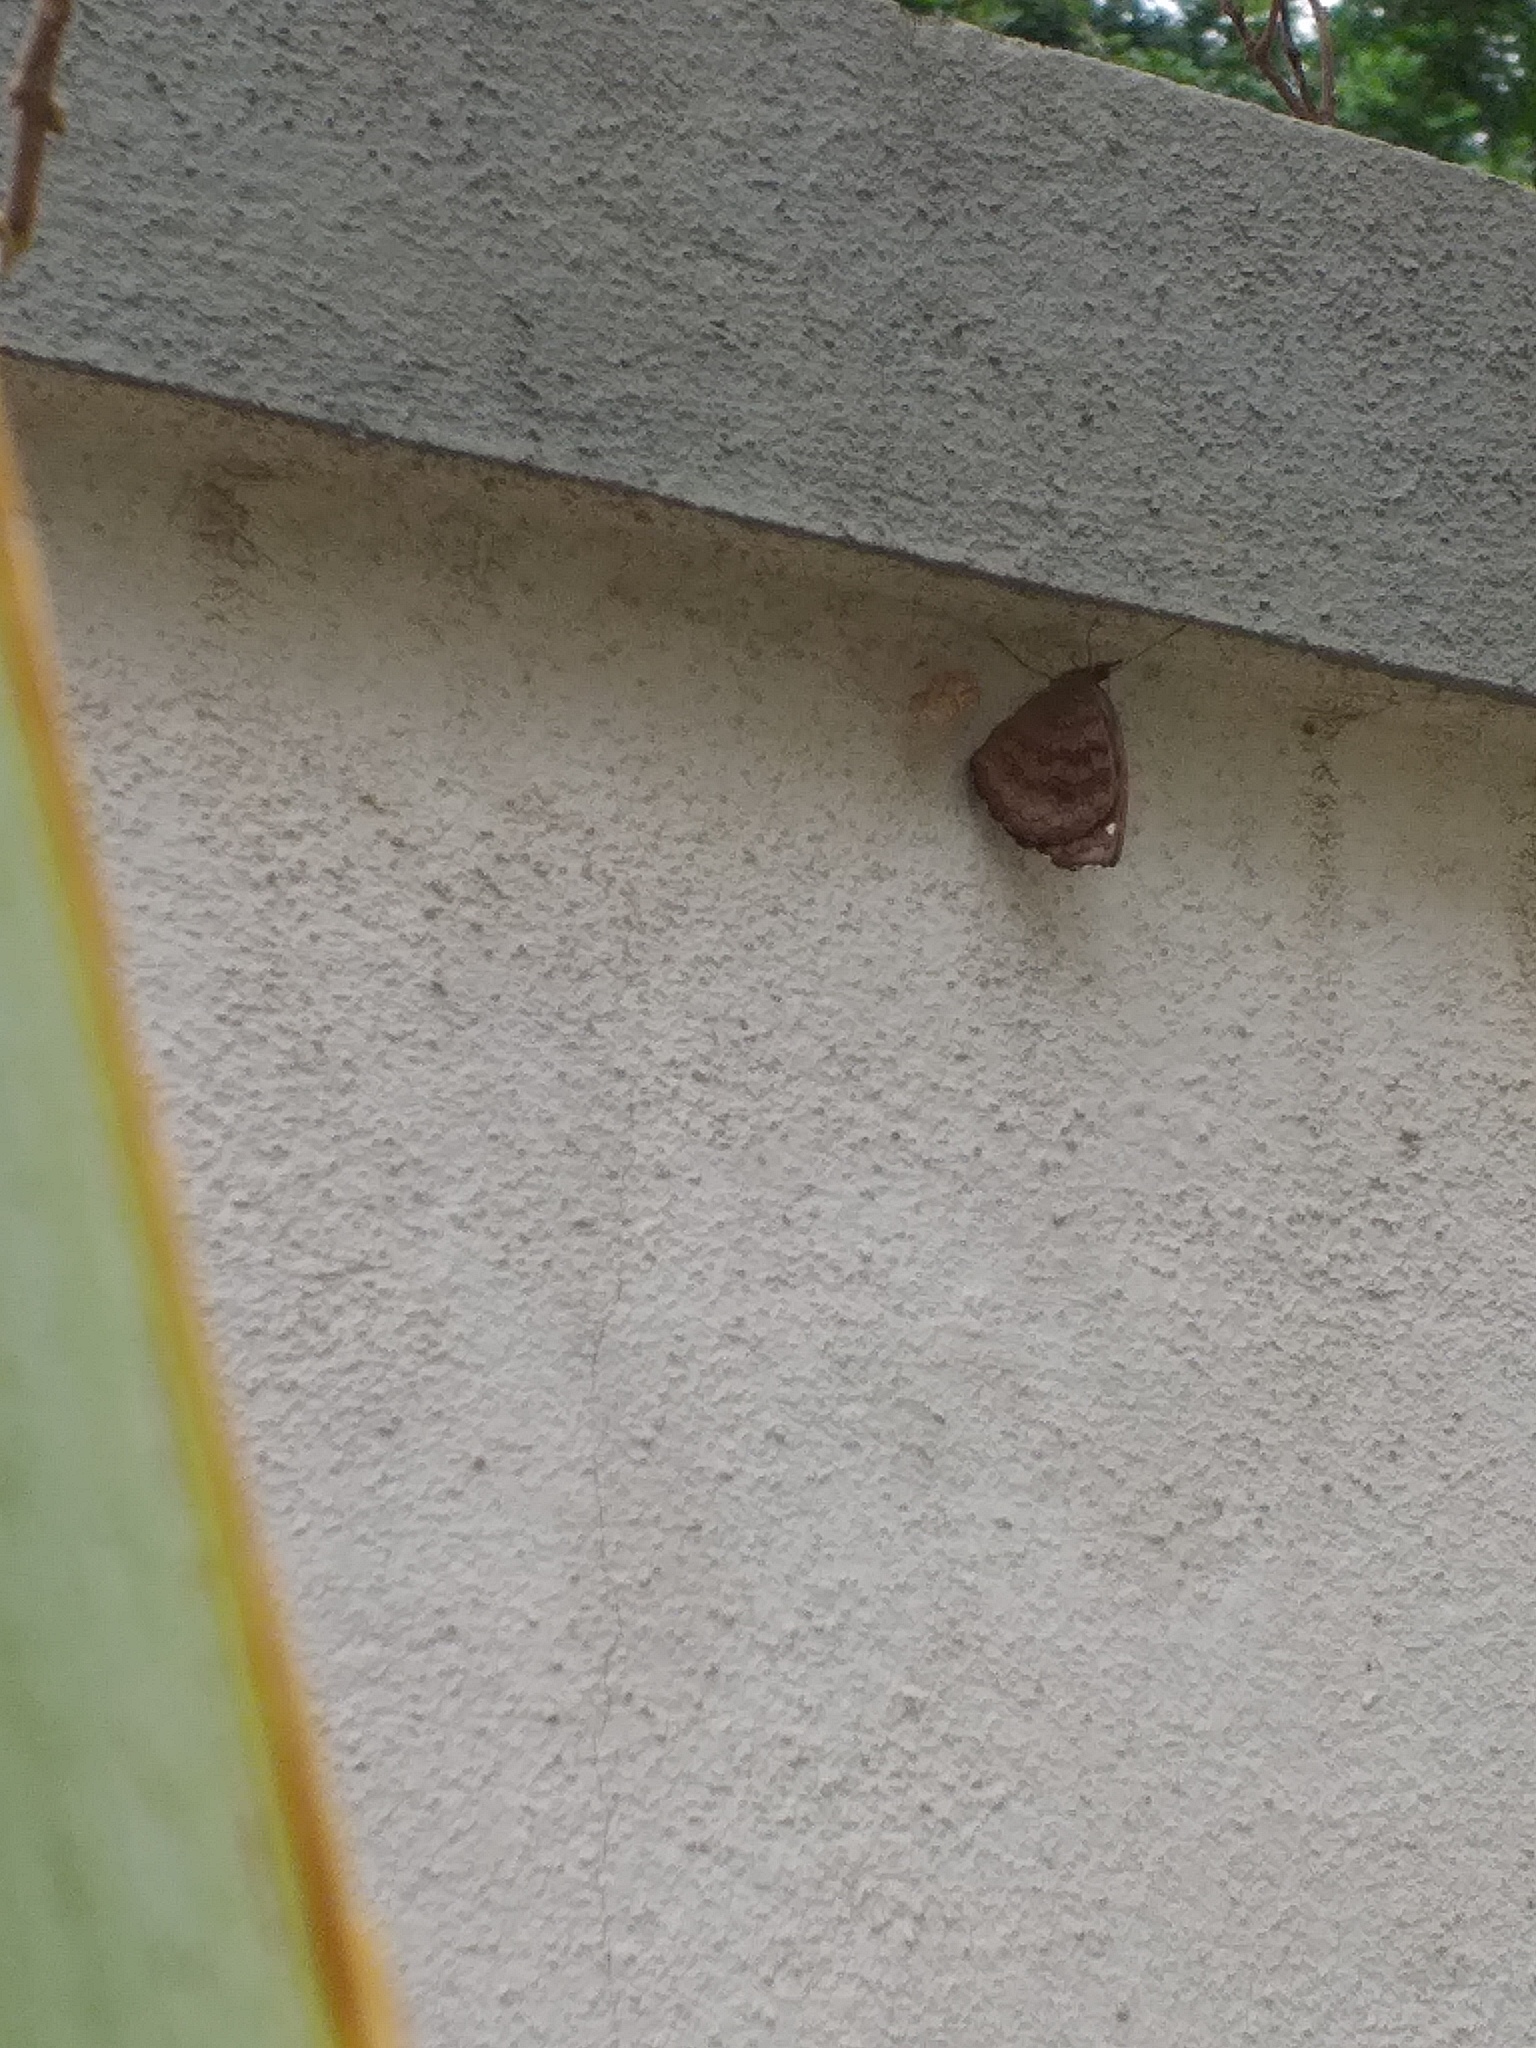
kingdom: Animalia
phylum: Arthropoda
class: Insecta
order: Lepidoptera
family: Nymphalidae
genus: Ariadne
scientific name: Ariadne merione
